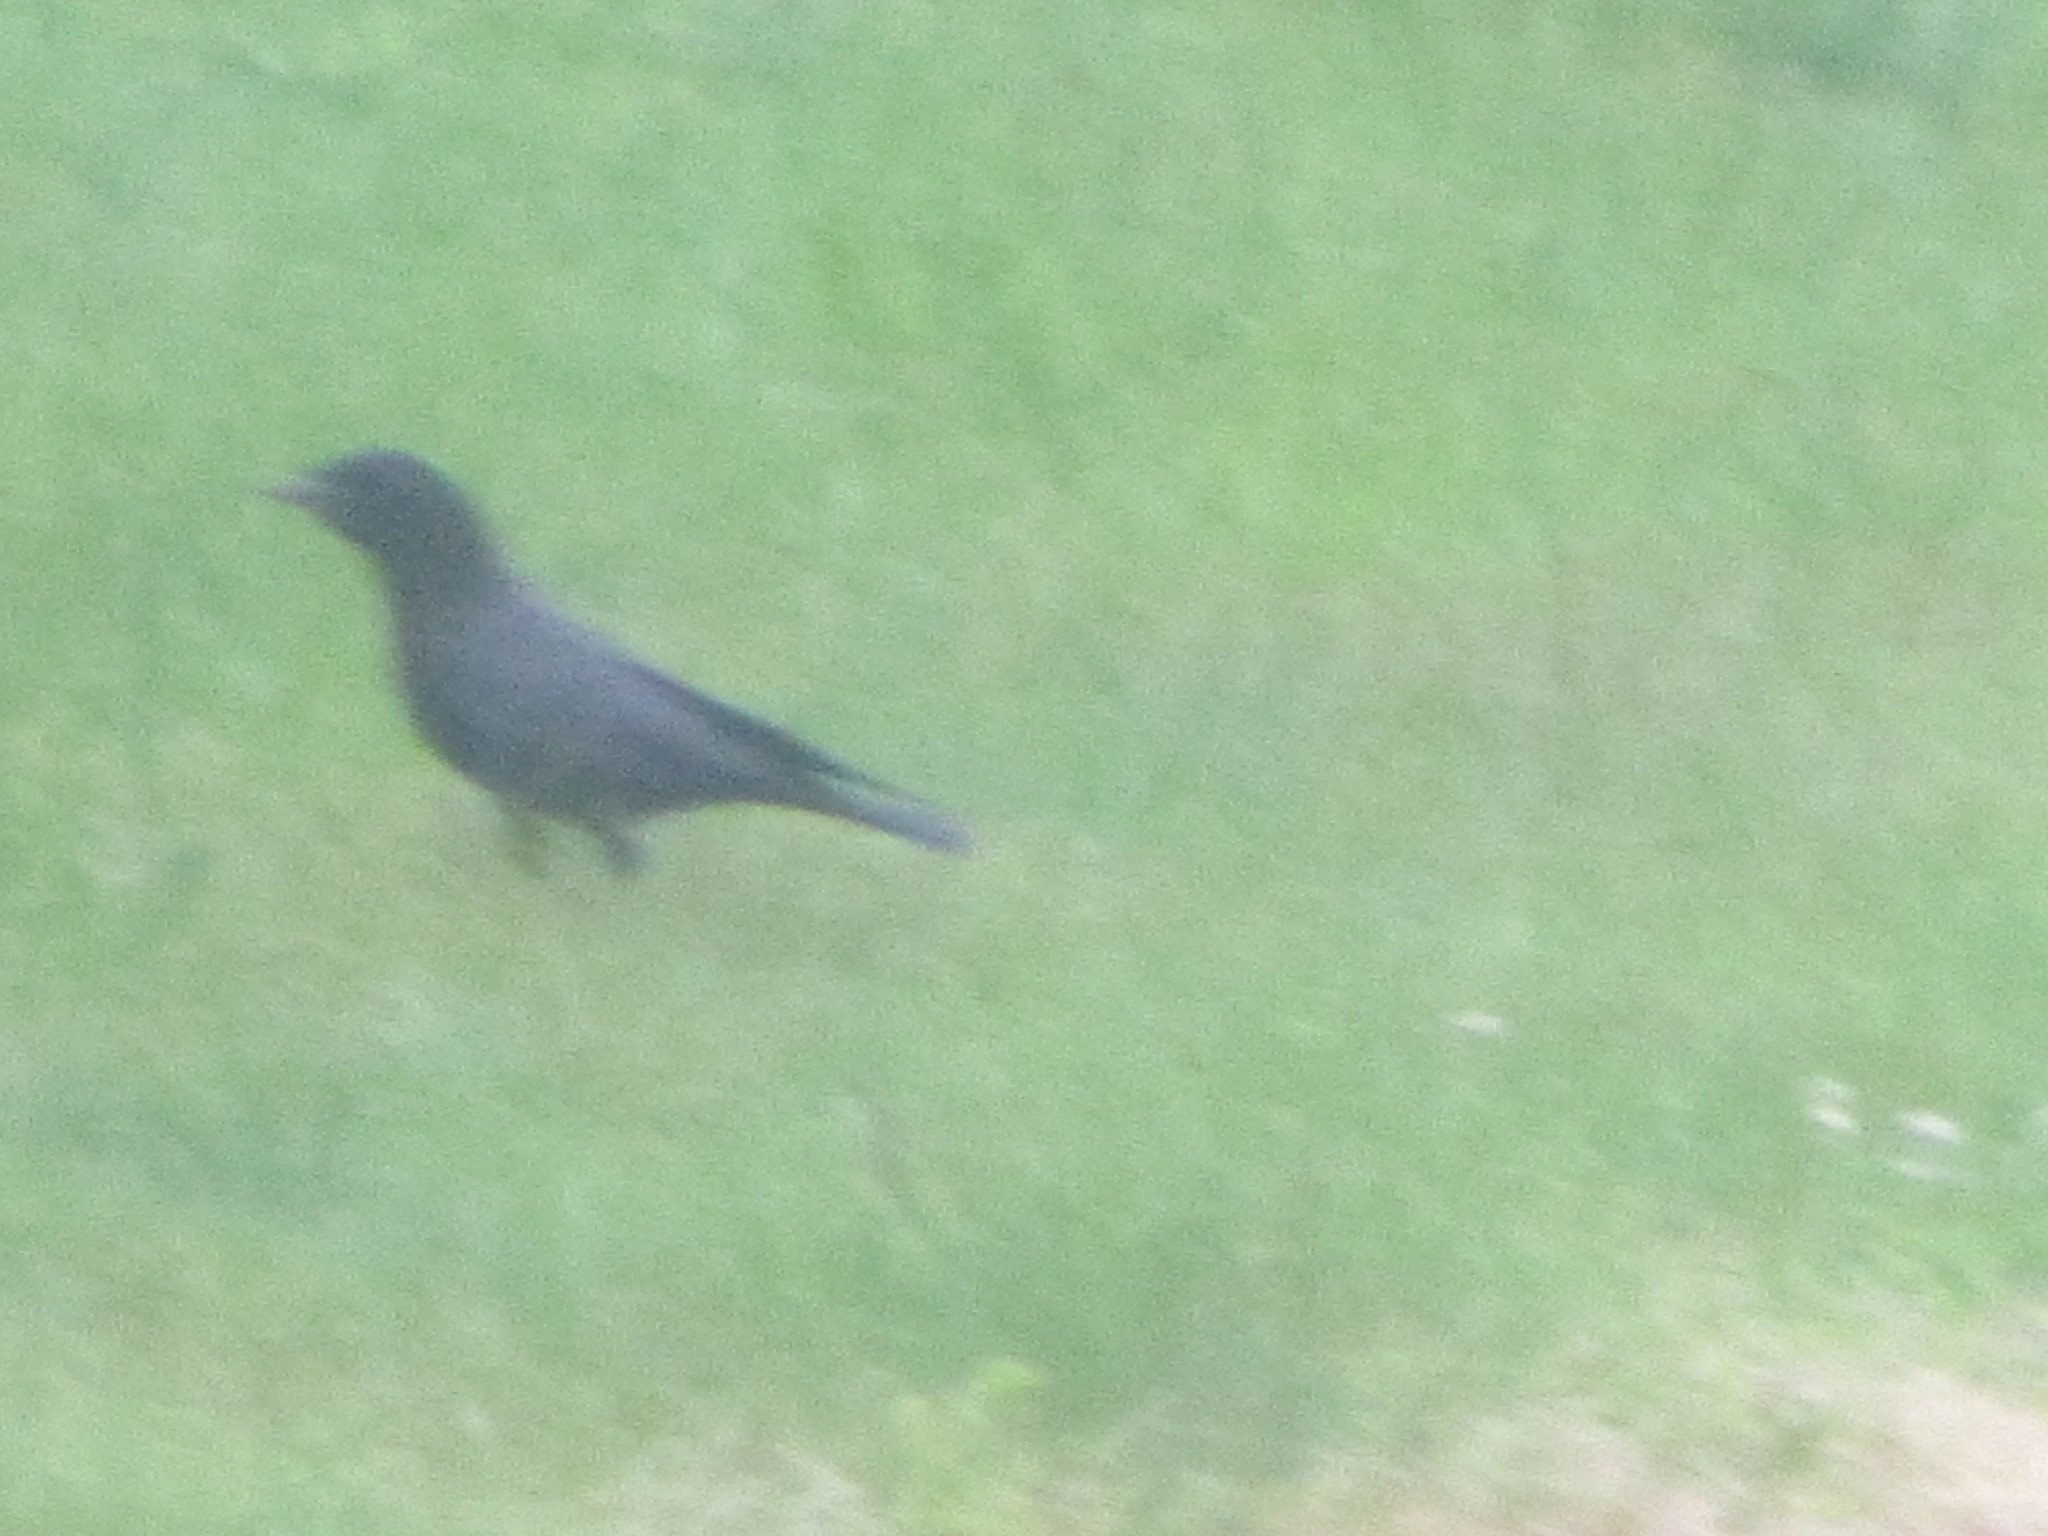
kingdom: Animalia
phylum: Chordata
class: Aves
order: Passeriformes
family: Corvidae
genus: Corvus
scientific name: Corvus brachyrhynchos
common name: American crow
